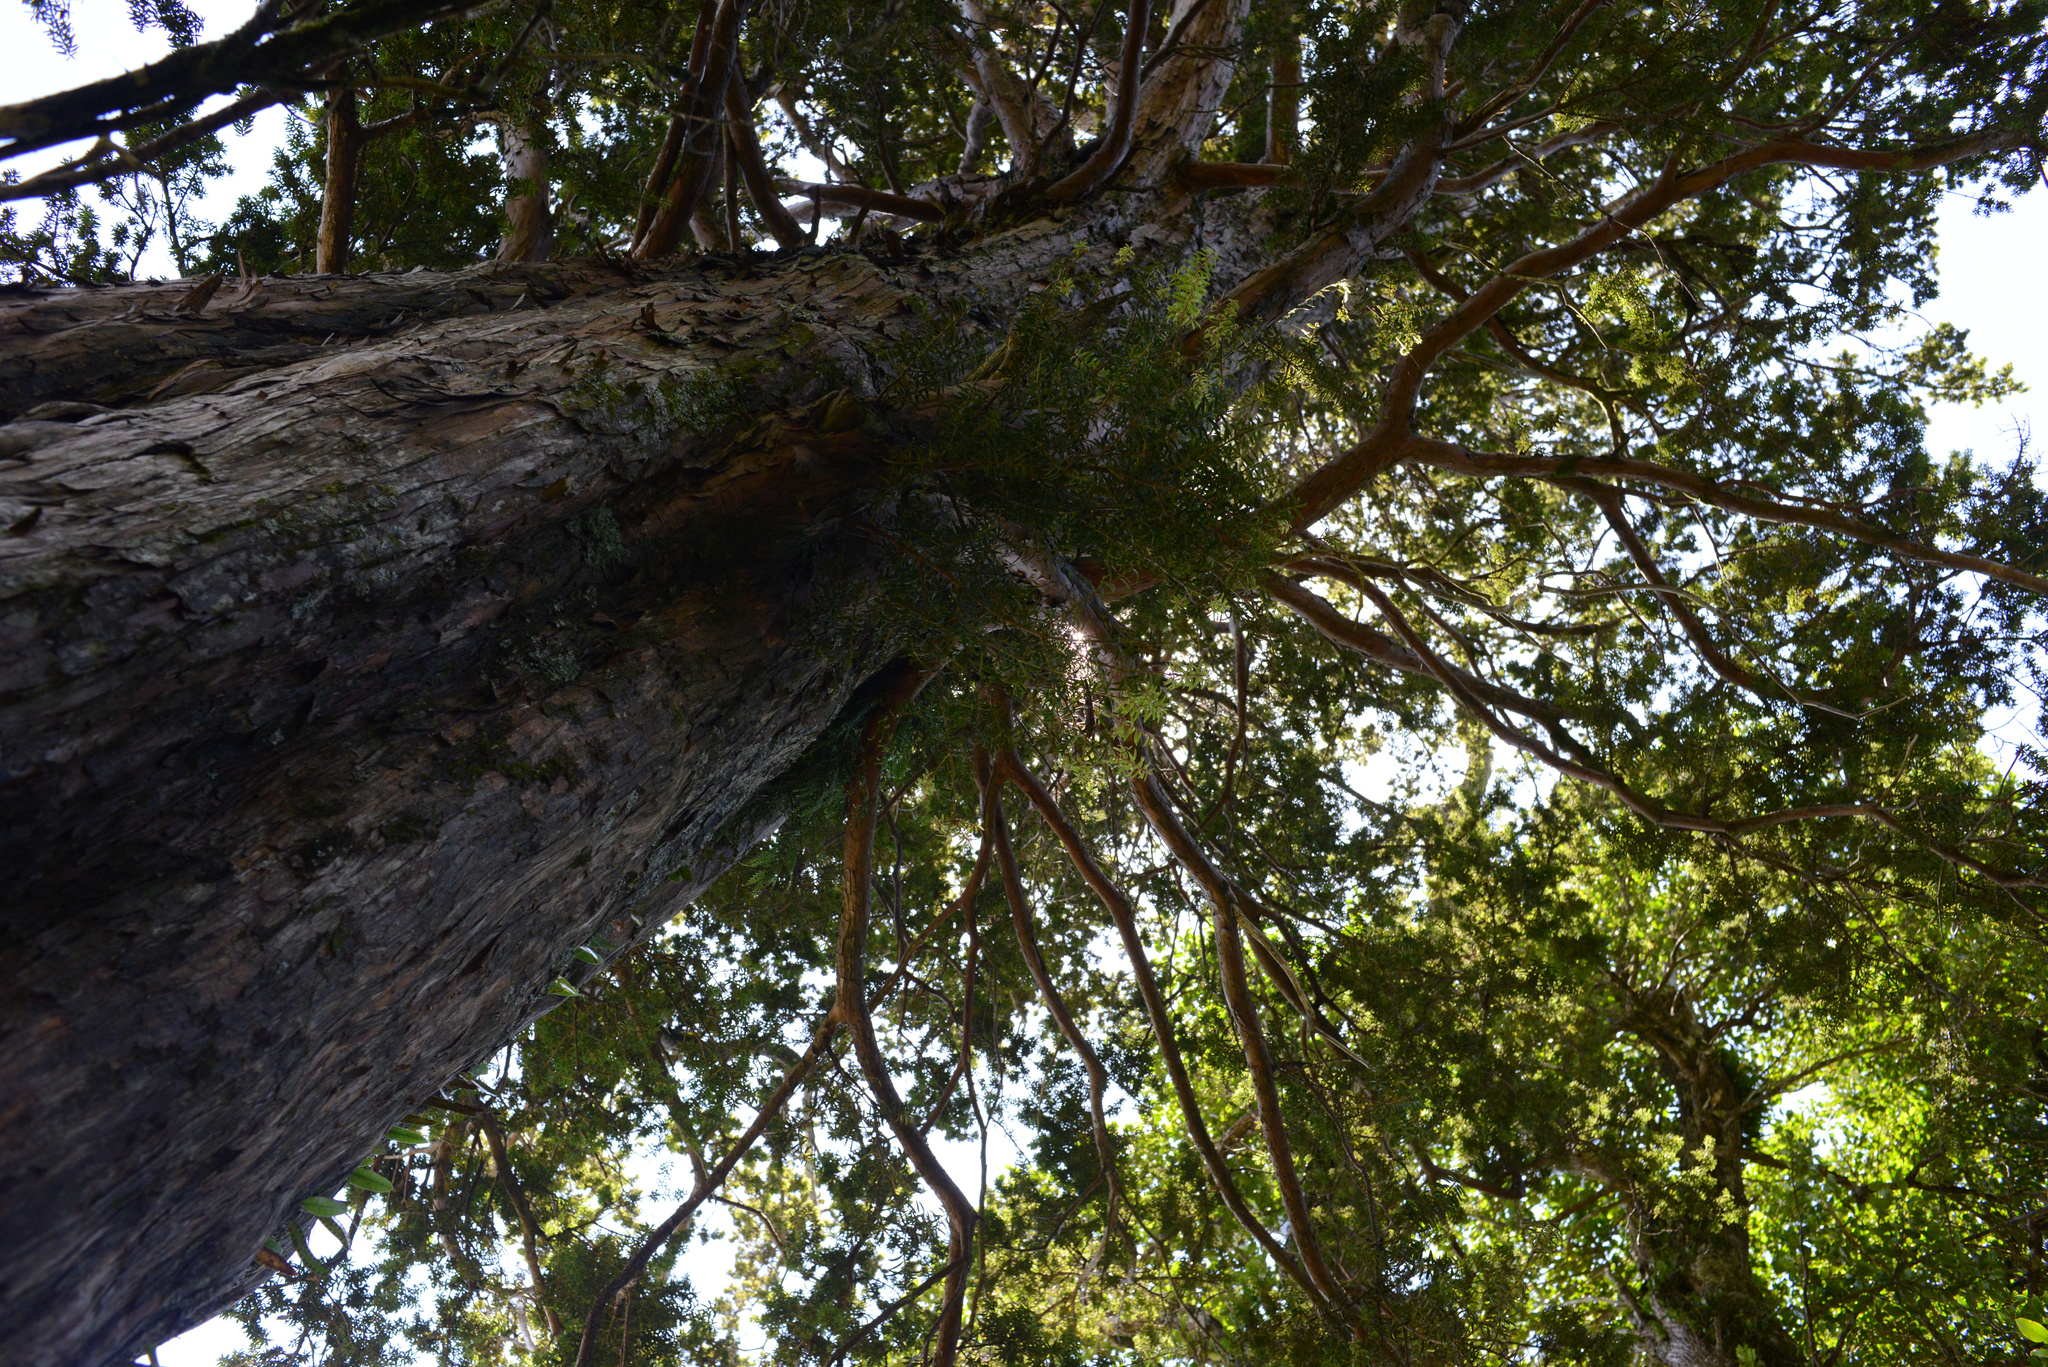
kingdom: Plantae
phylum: Tracheophyta
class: Pinopsida
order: Pinales
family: Podocarpaceae
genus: Podocarpus
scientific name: Podocarpus laetus
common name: Hall's totara
